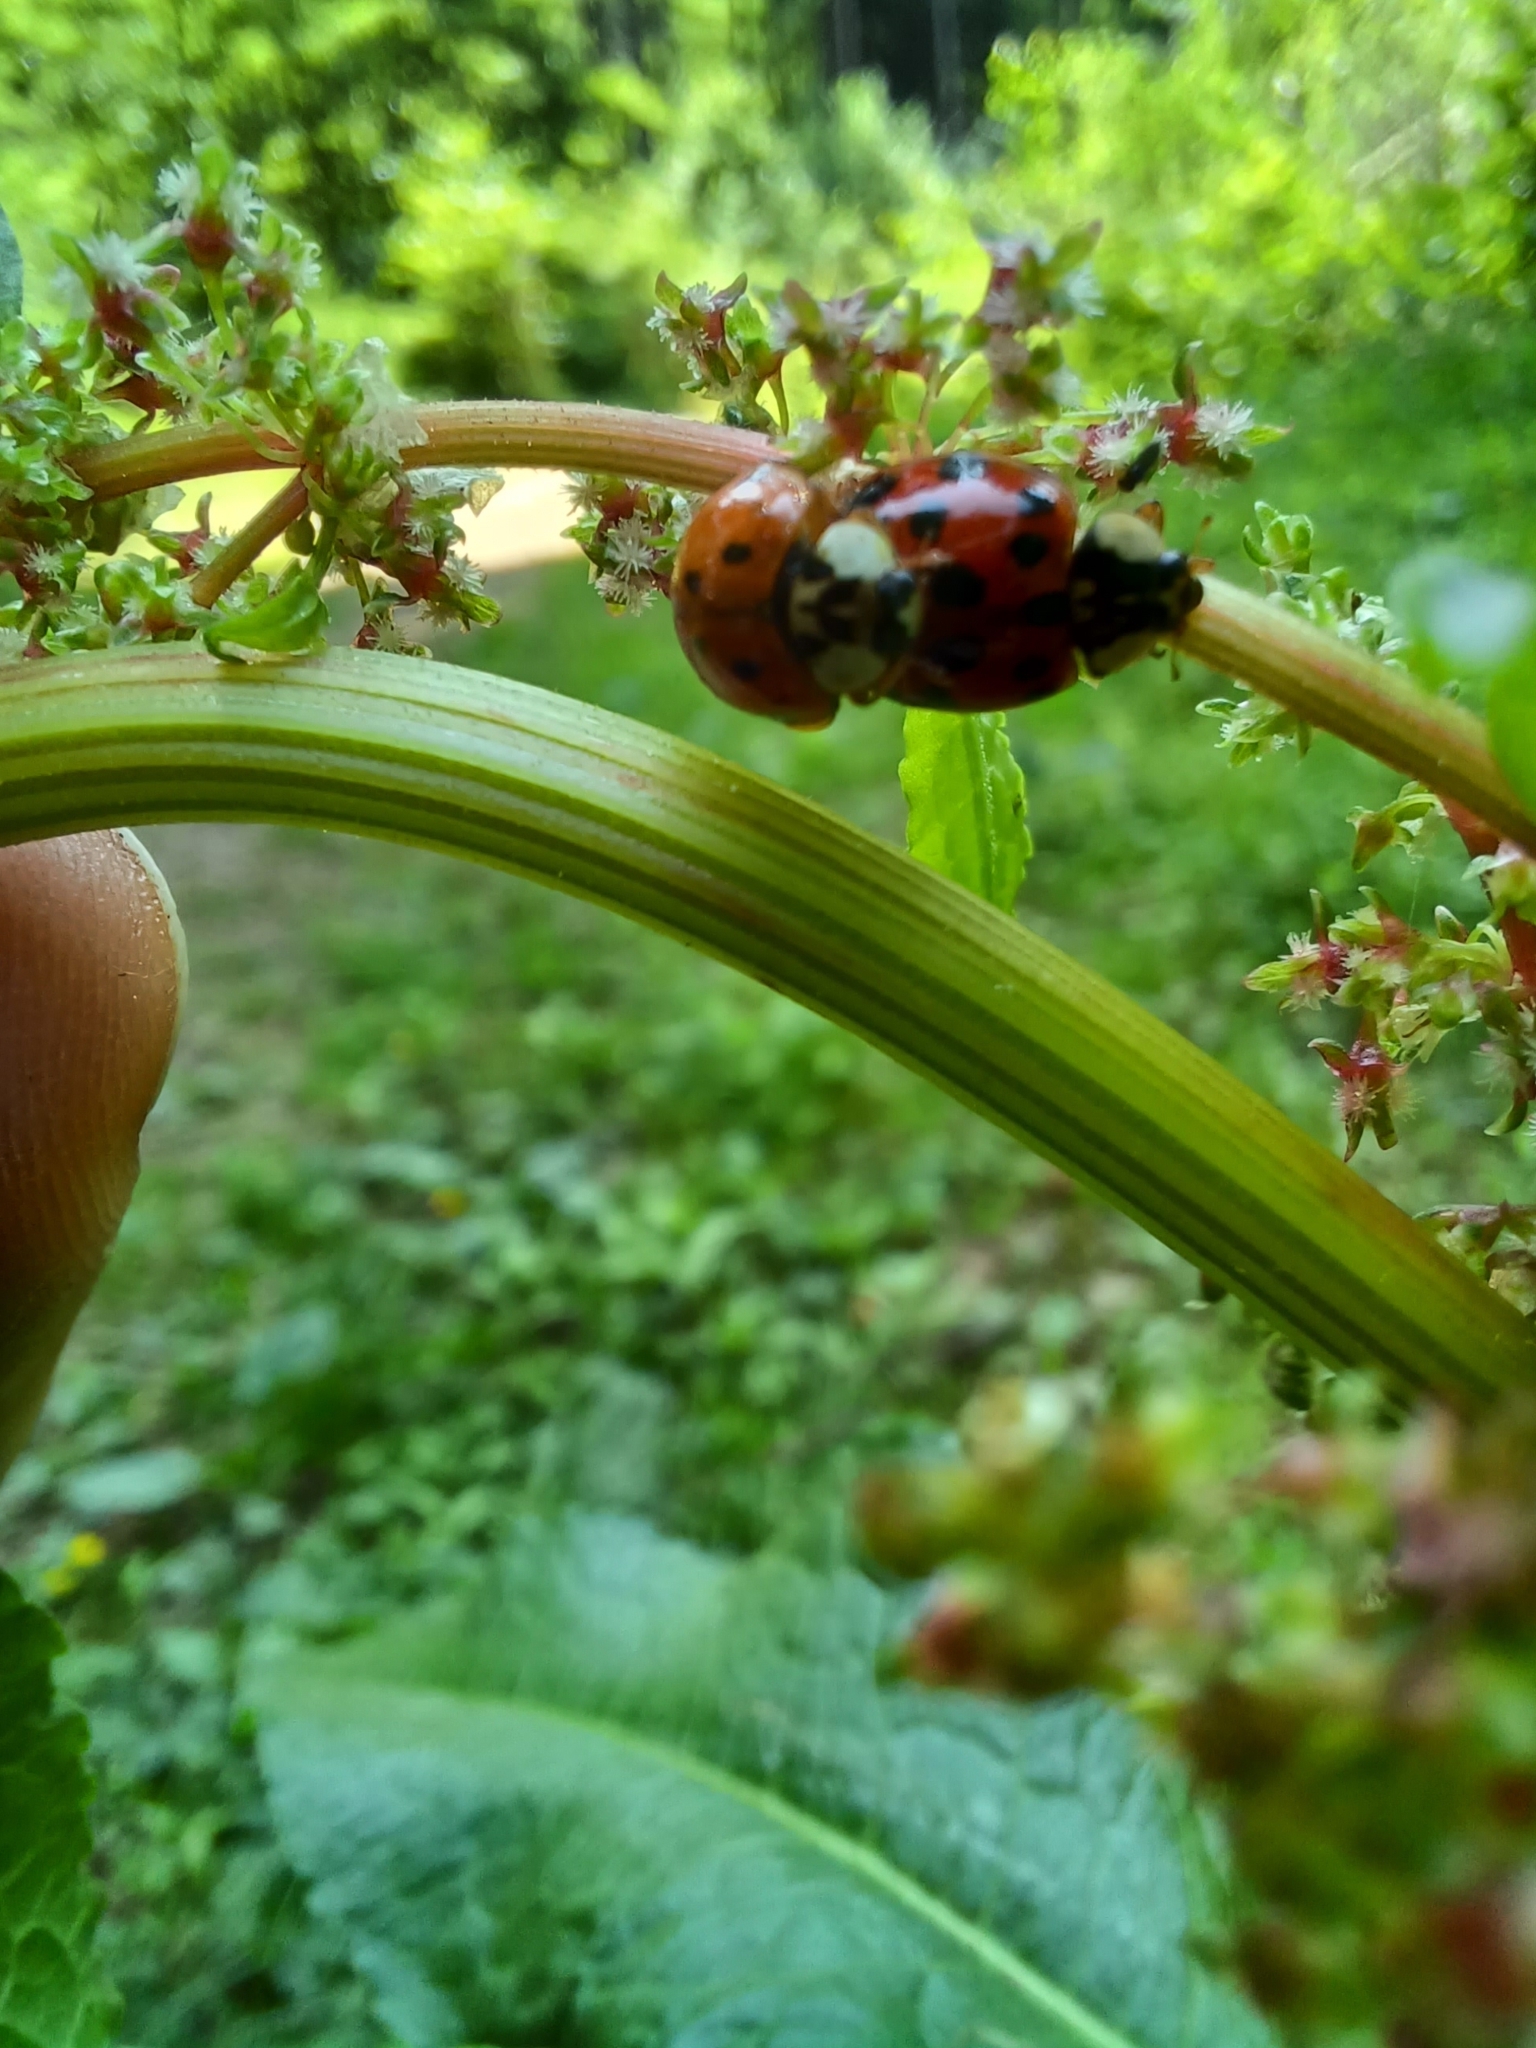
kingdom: Animalia
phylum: Arthropoda
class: Insecta
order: Coleoptera
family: Coccinellidae
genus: Harmonia
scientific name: Harmonia axyridis
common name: Harlequin ladybird
